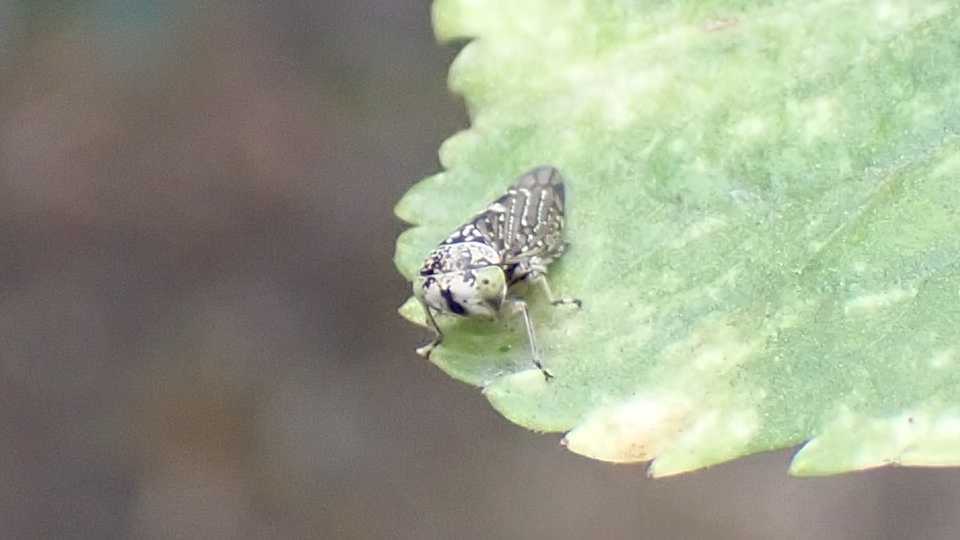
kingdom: Animalia
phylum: Arthropoda
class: Insecta
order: Hemiptera
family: Cicadellidae
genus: Acericerus
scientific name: Acericerus heydenii
